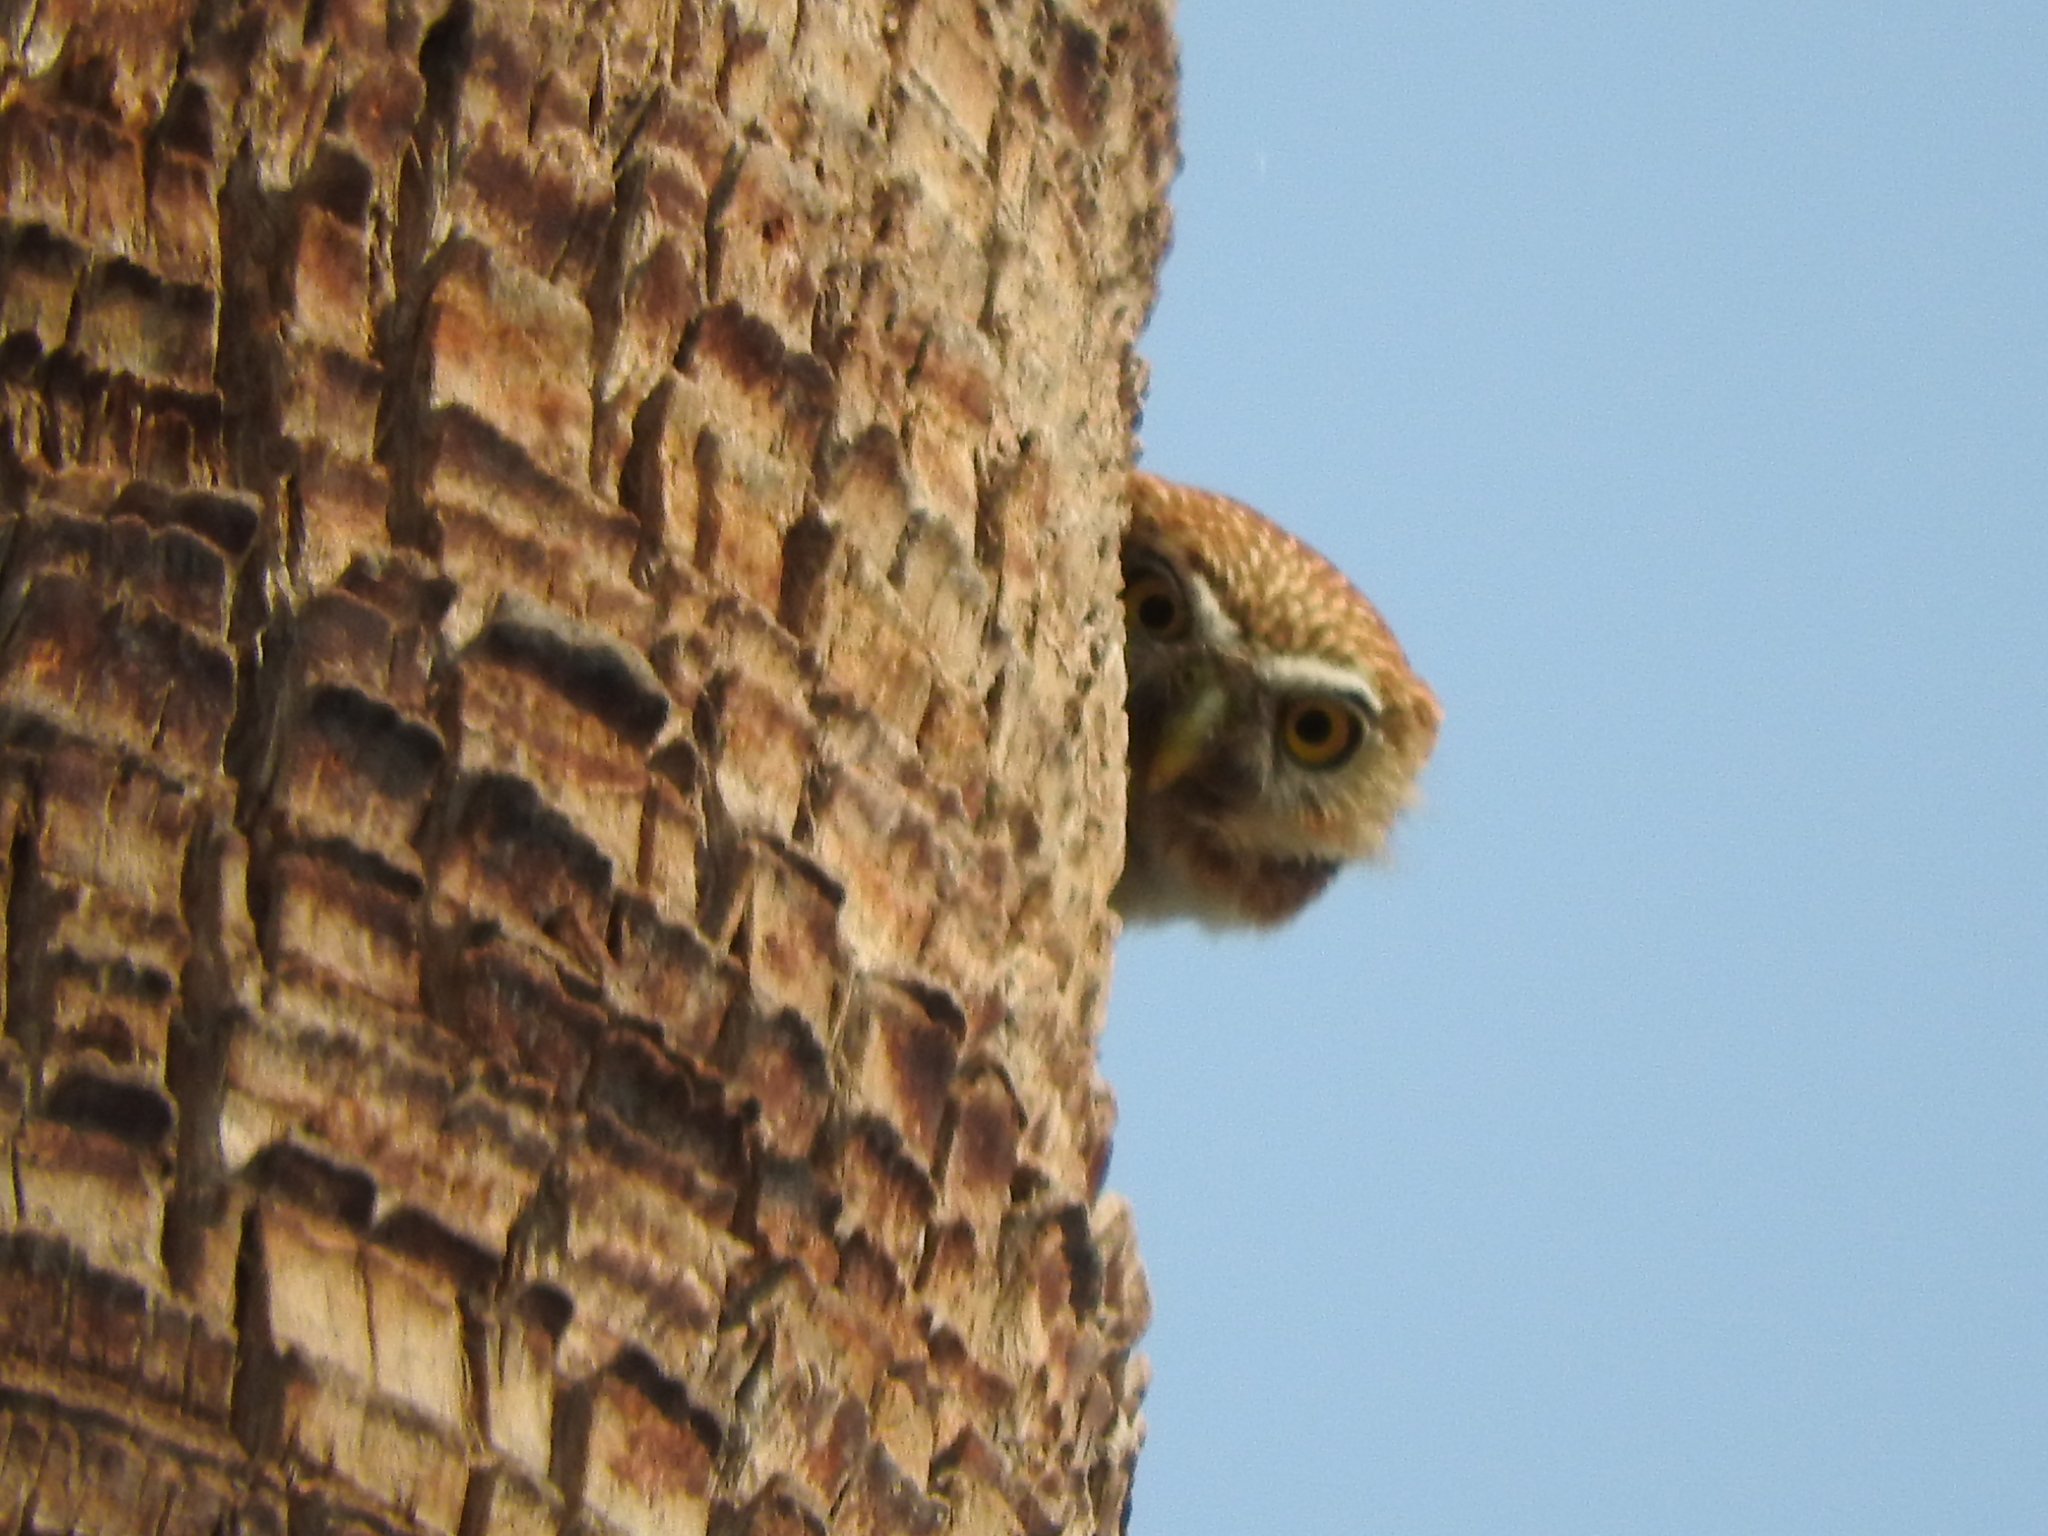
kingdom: Animalia
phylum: Chordata
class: Aves
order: Strigiformes
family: Strigidae
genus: Glaucidium
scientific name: Glaucidium brasilianum
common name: Ferruginous pygmy-owl
